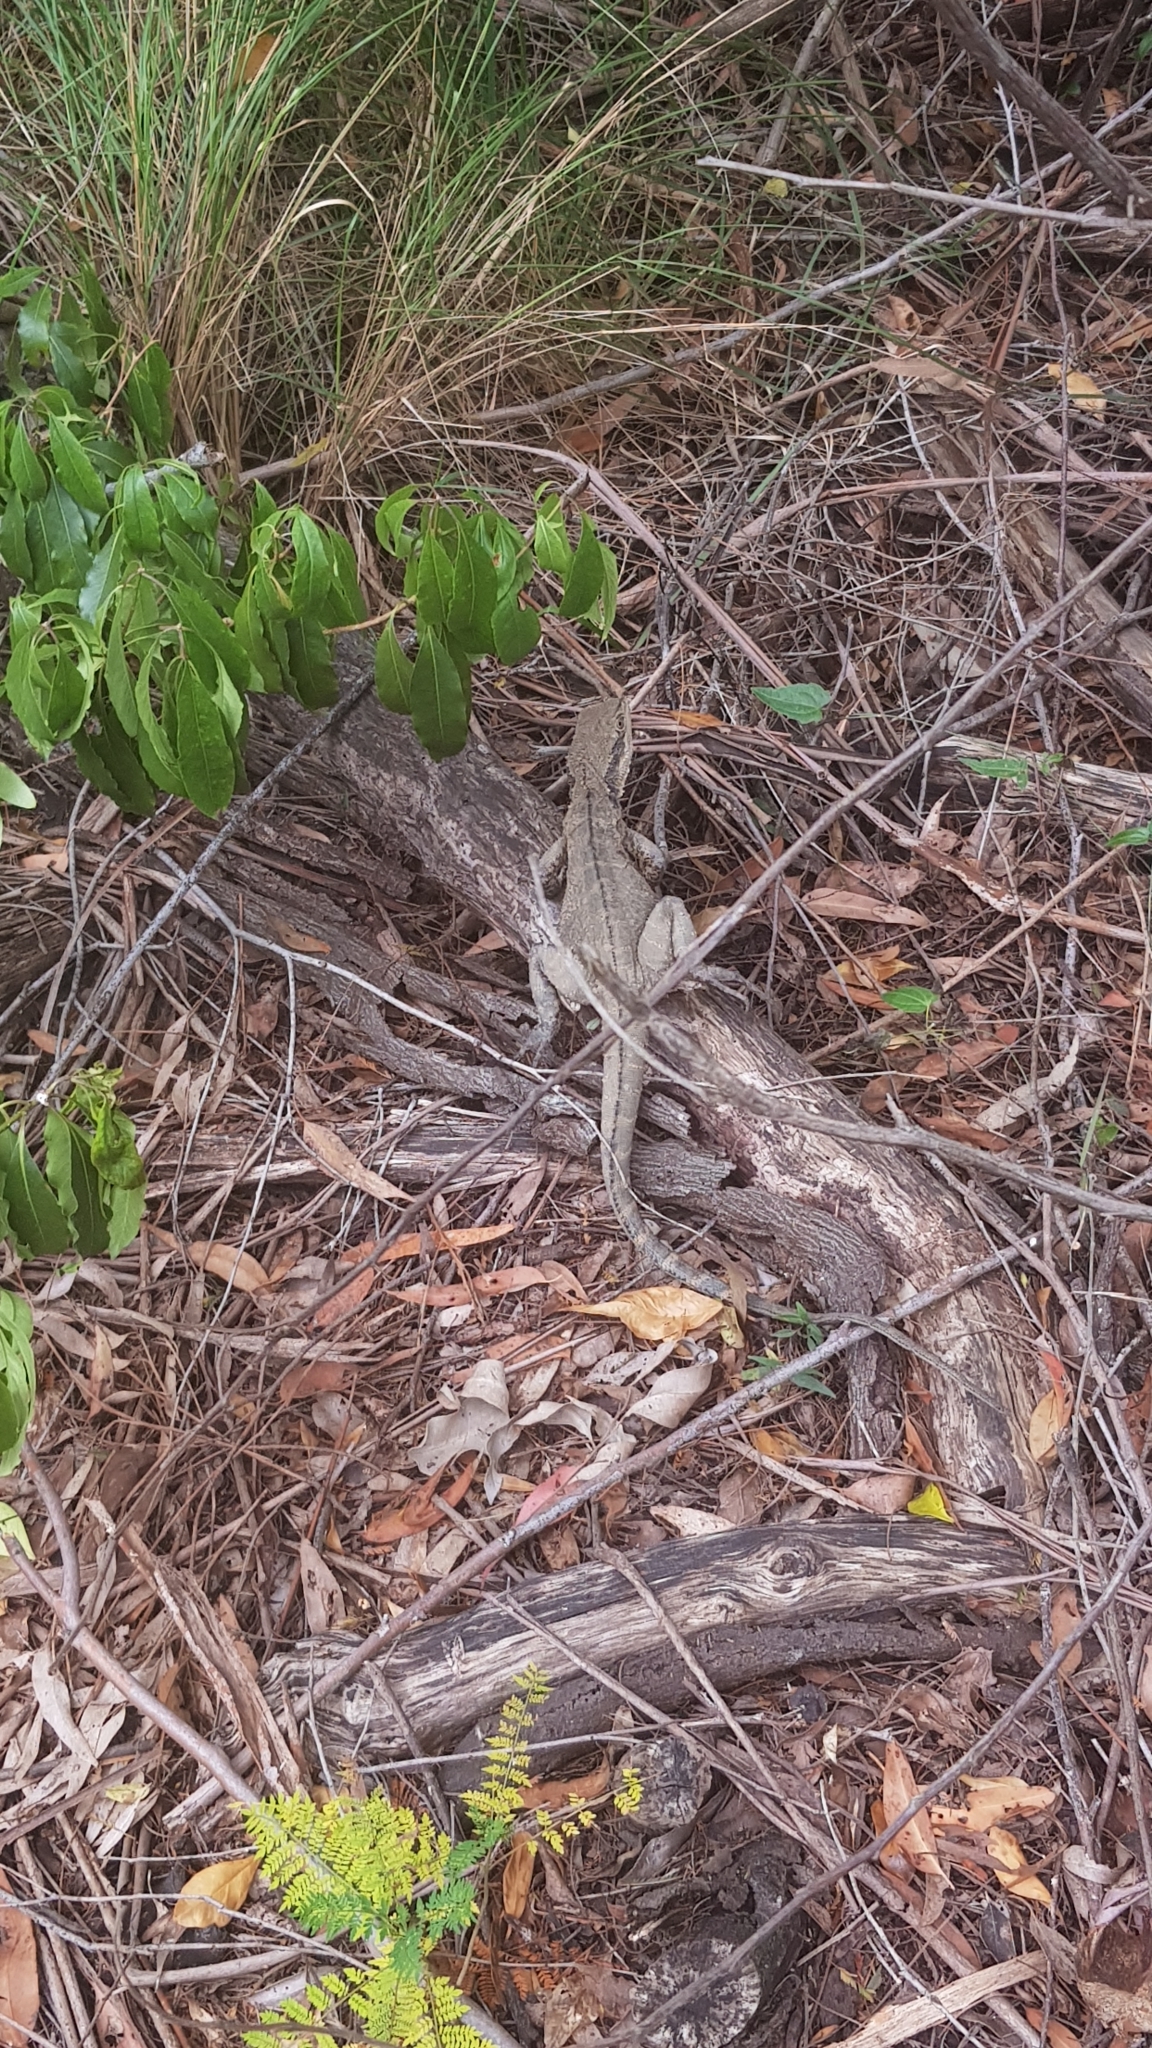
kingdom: Animalia
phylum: Chordata
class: Squamata
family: Agamidae
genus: Intellagama
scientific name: Intellagama lesueurii
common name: Eastern water dragon
